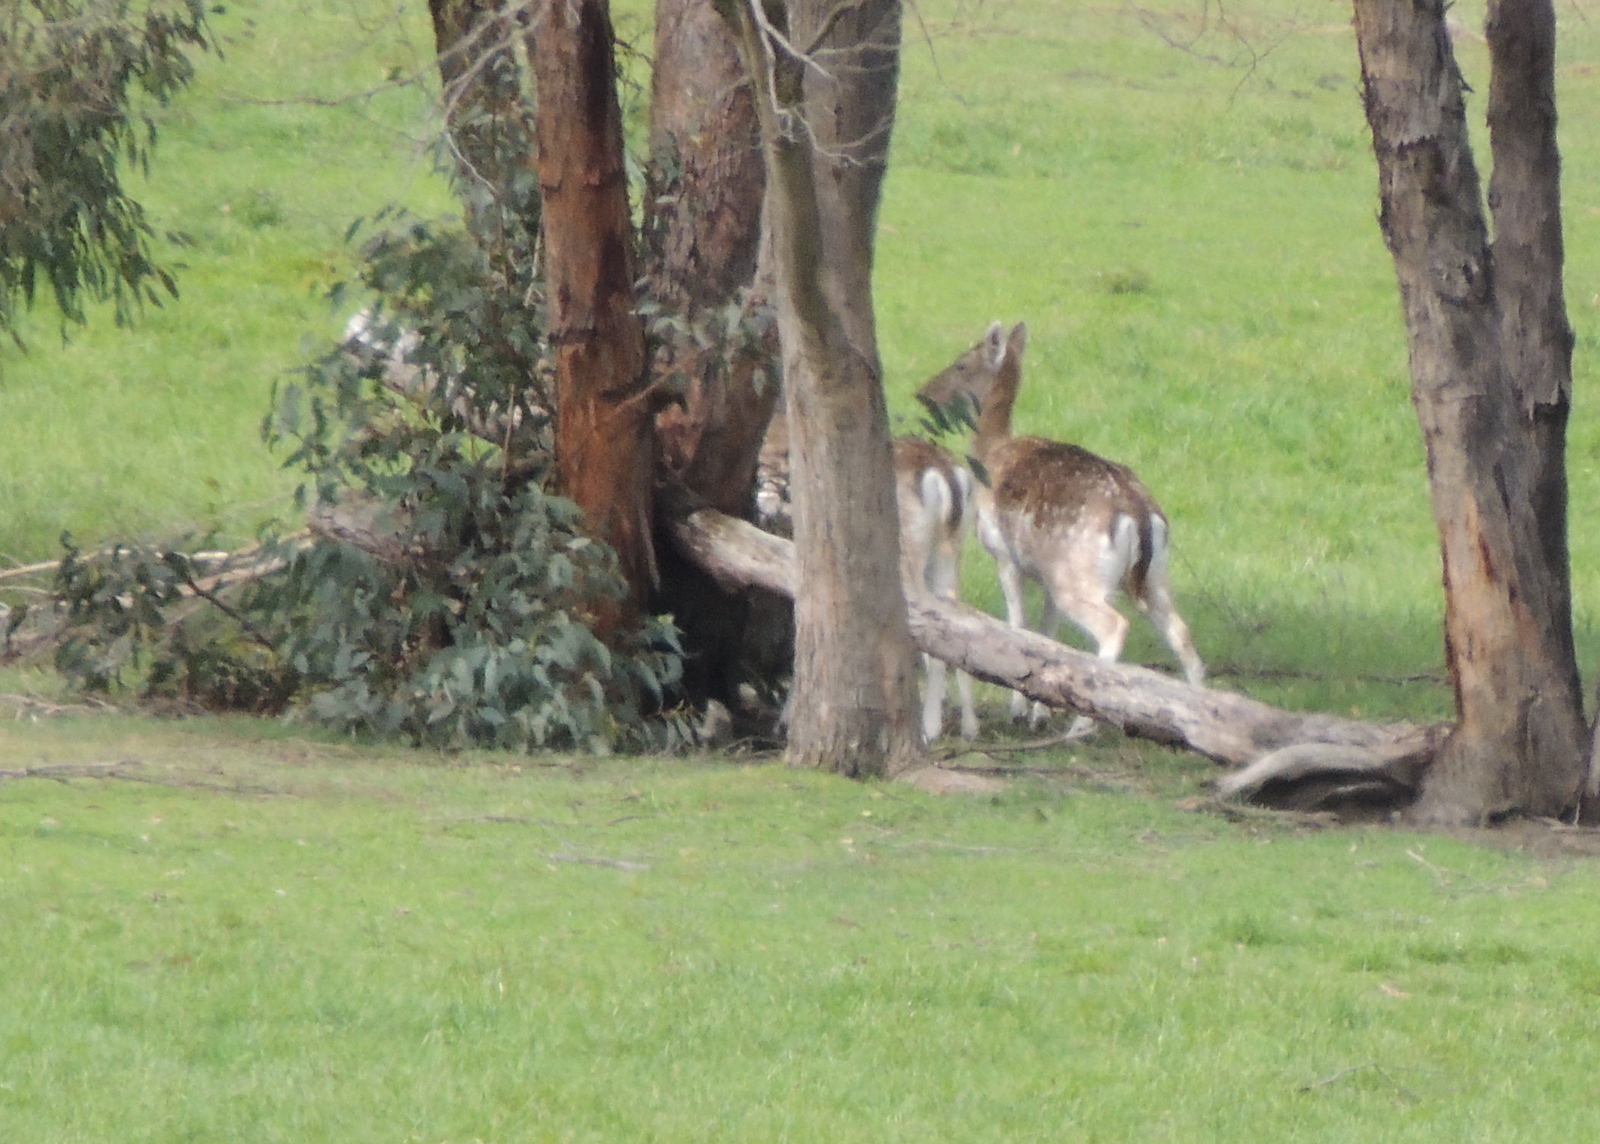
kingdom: Animalia
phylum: Chordata
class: Mammalia
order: Artiodactyla
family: Cervidae
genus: Dama
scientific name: Dama dama
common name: Fallow deer
